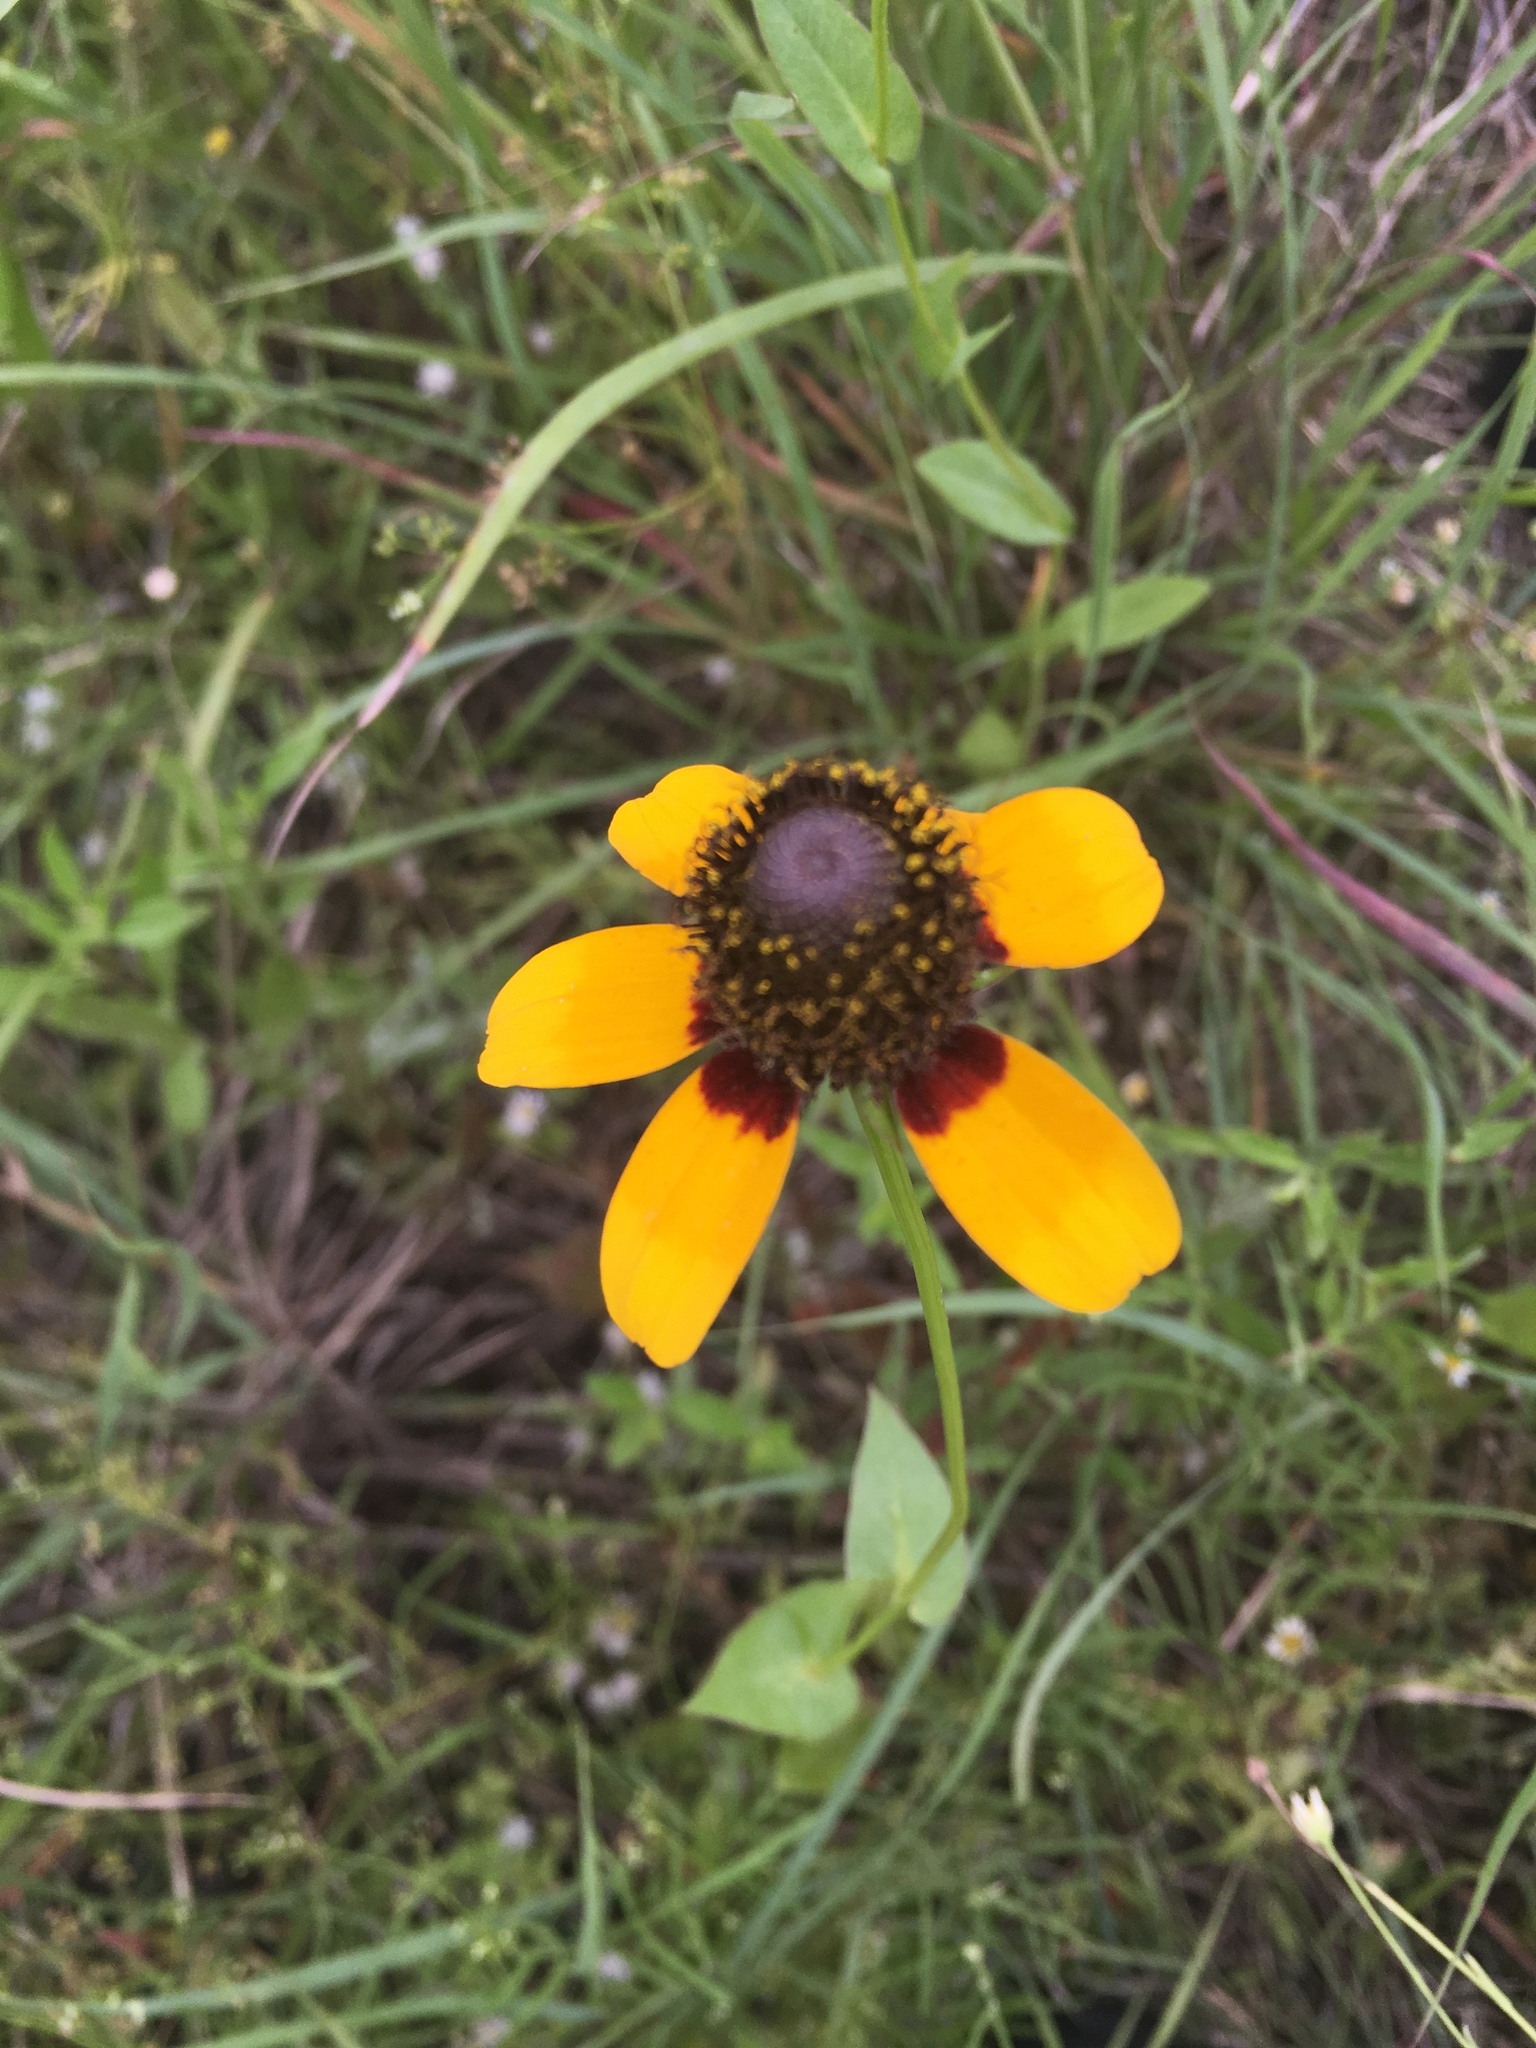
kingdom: Plantae
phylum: Tracheophyta
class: Magnoliopsida
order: Asterales
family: Asteraceae
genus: Rudbeckia
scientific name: Rudbeckia amplexicaulis
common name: Clasping-leaf coneflower
